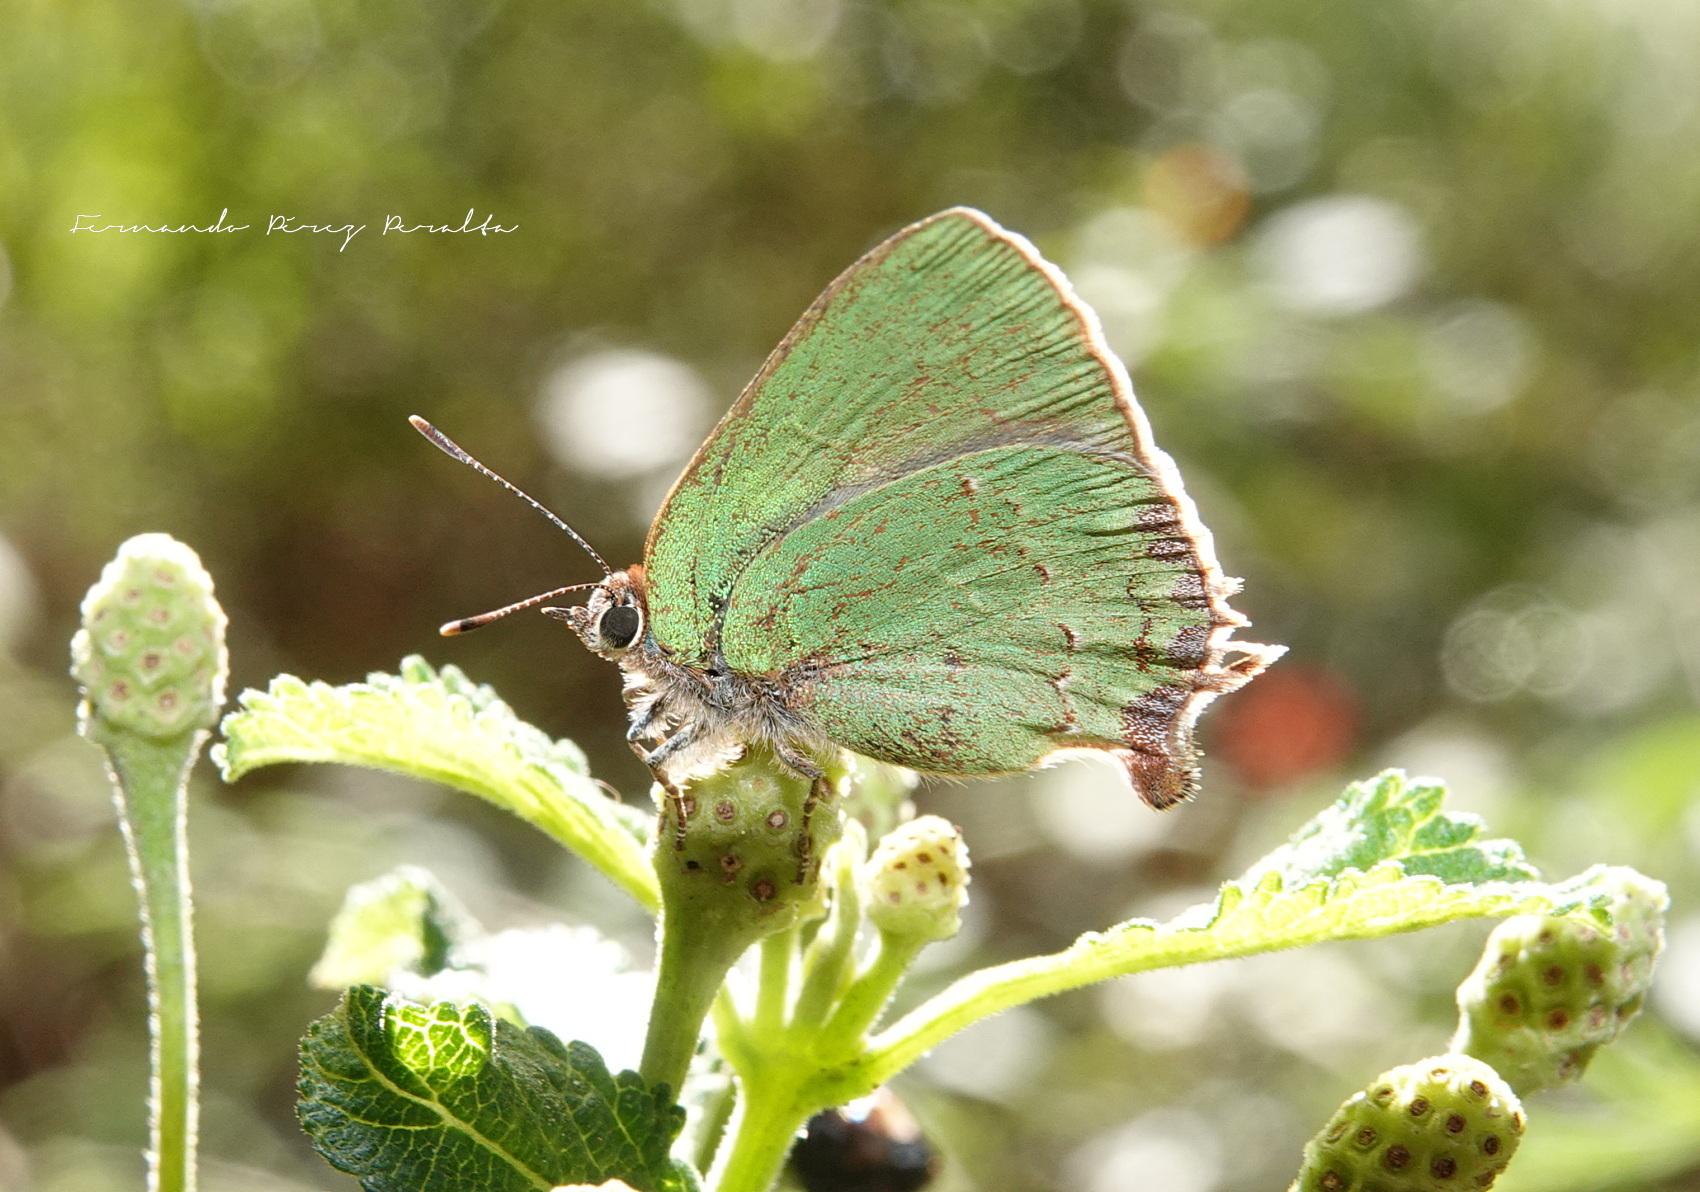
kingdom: Animalia
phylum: Arthropoda
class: Insecta
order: Lepidoptera
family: Lycaenidae
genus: Cyanophrys
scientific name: Cyanophrys longula
